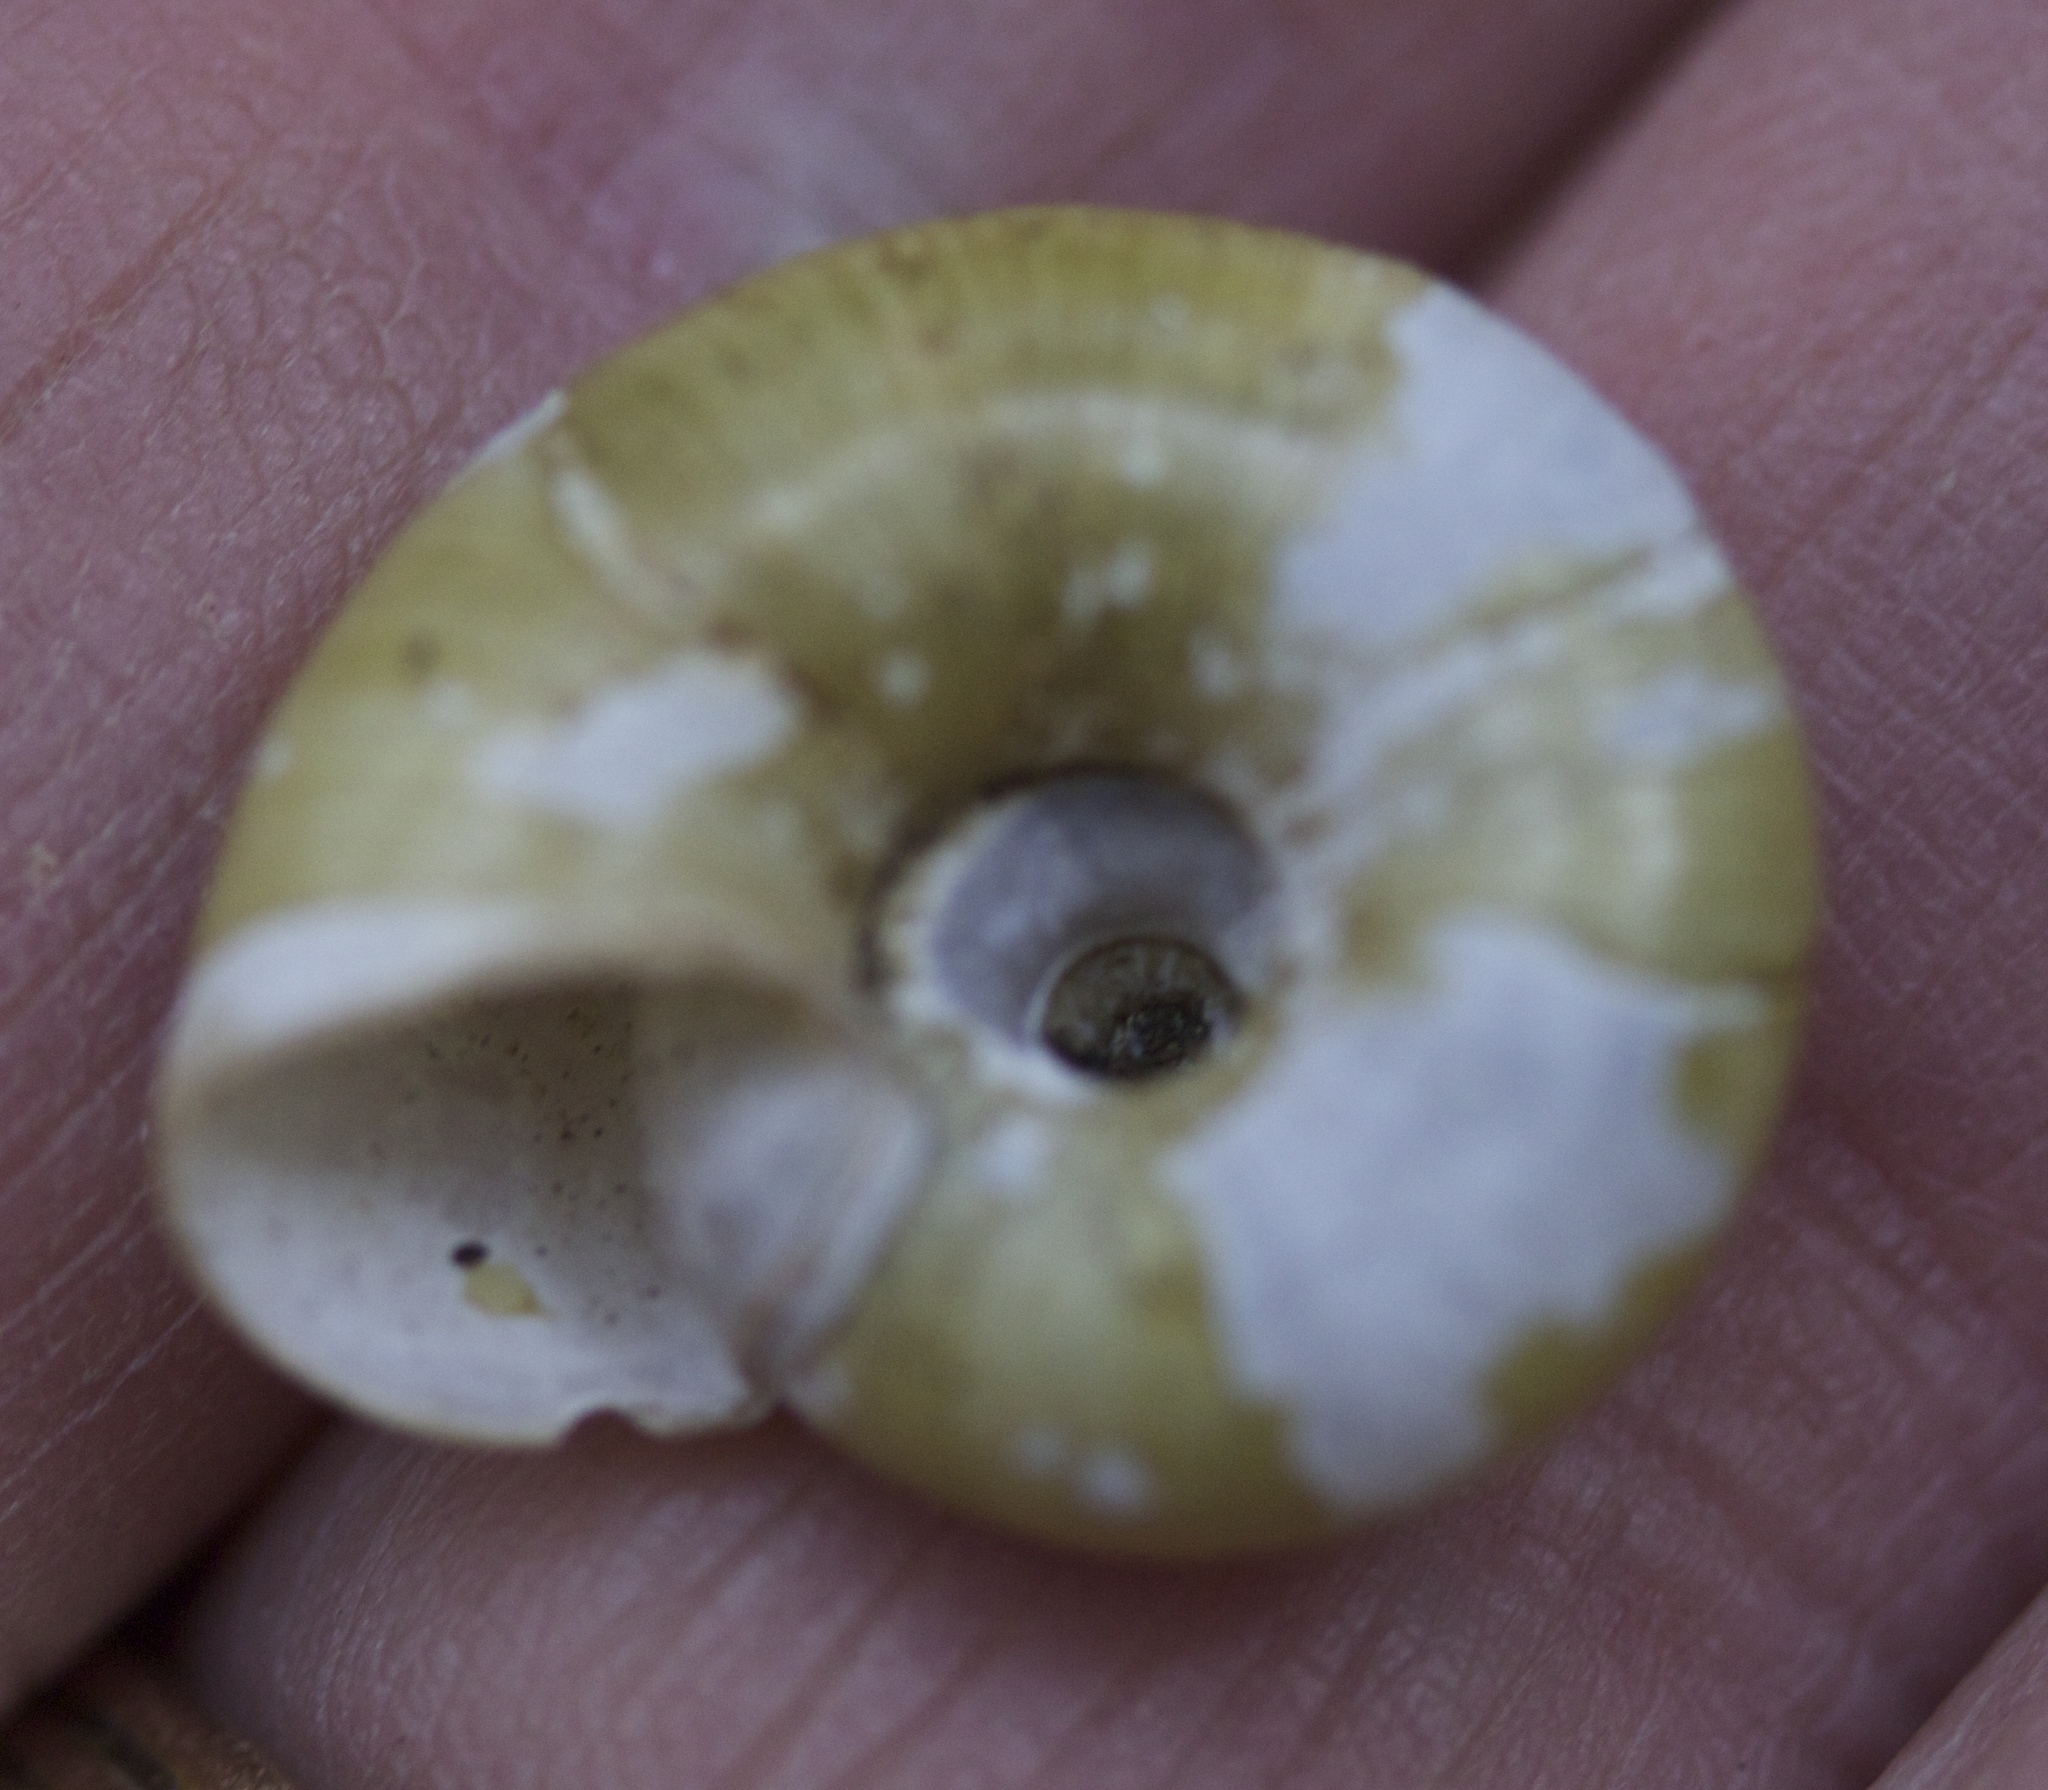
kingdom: Animalia
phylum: Mollusca
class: Gastropoda
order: Stylommatophora
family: Haplotrematidae
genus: Haplotrema
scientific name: Haplotrema minimum
